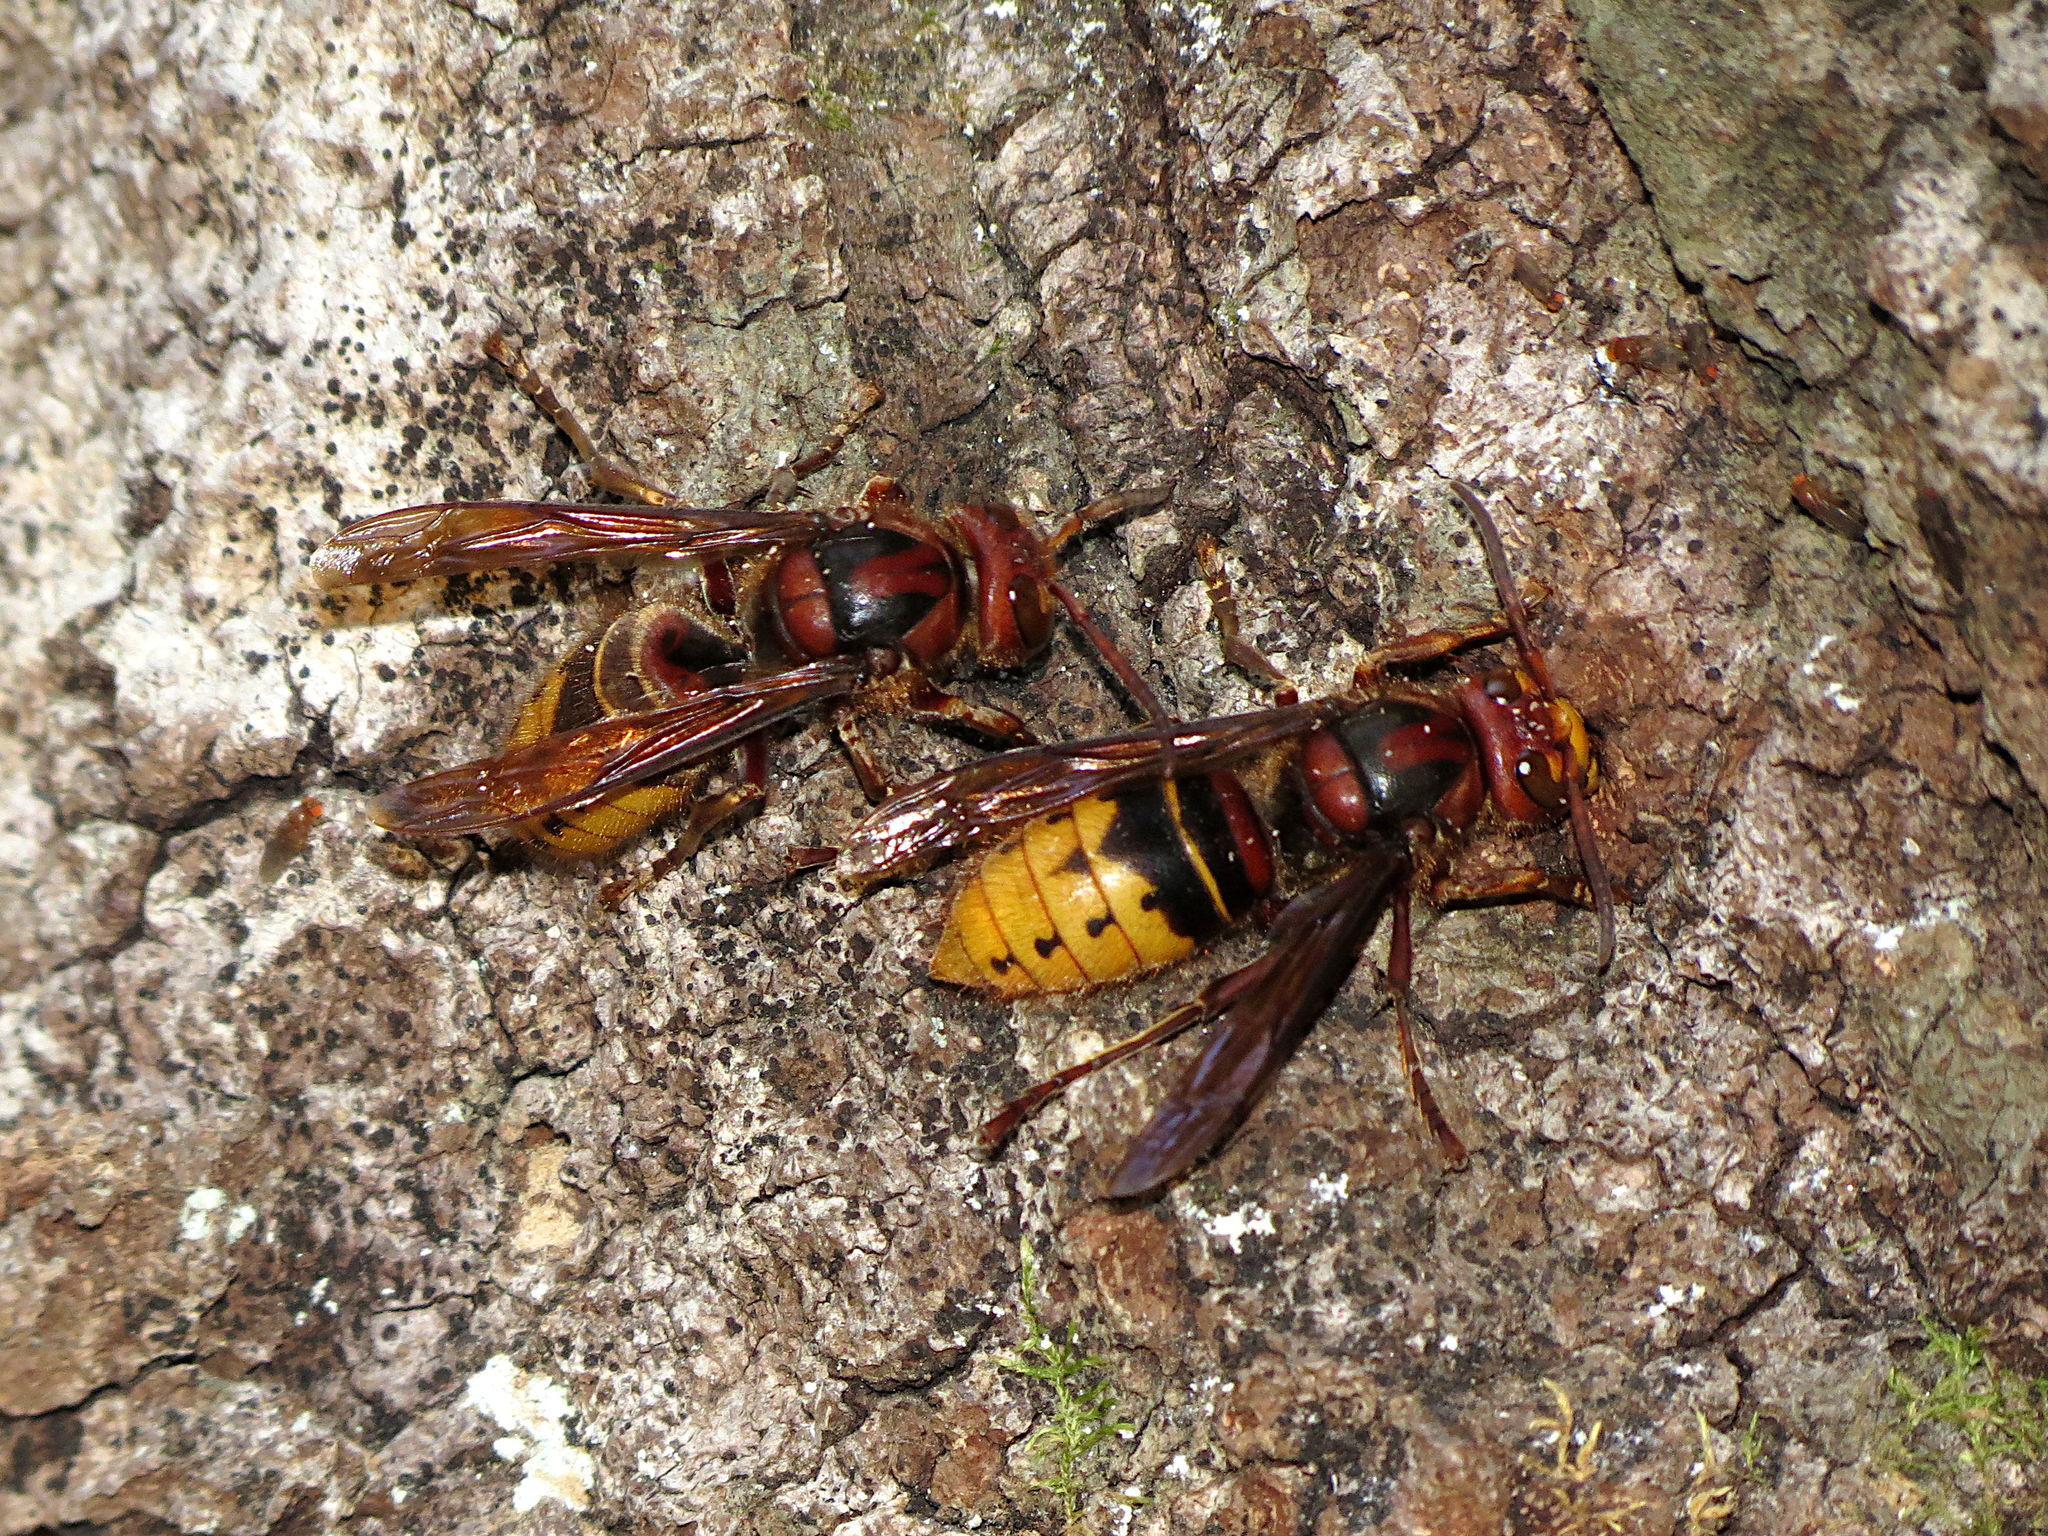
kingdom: Animalia
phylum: Arthropoda
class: Insecta
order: Hymenoptera
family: Vespidae
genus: Vespa
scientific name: Vespa crabro
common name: Hornet
